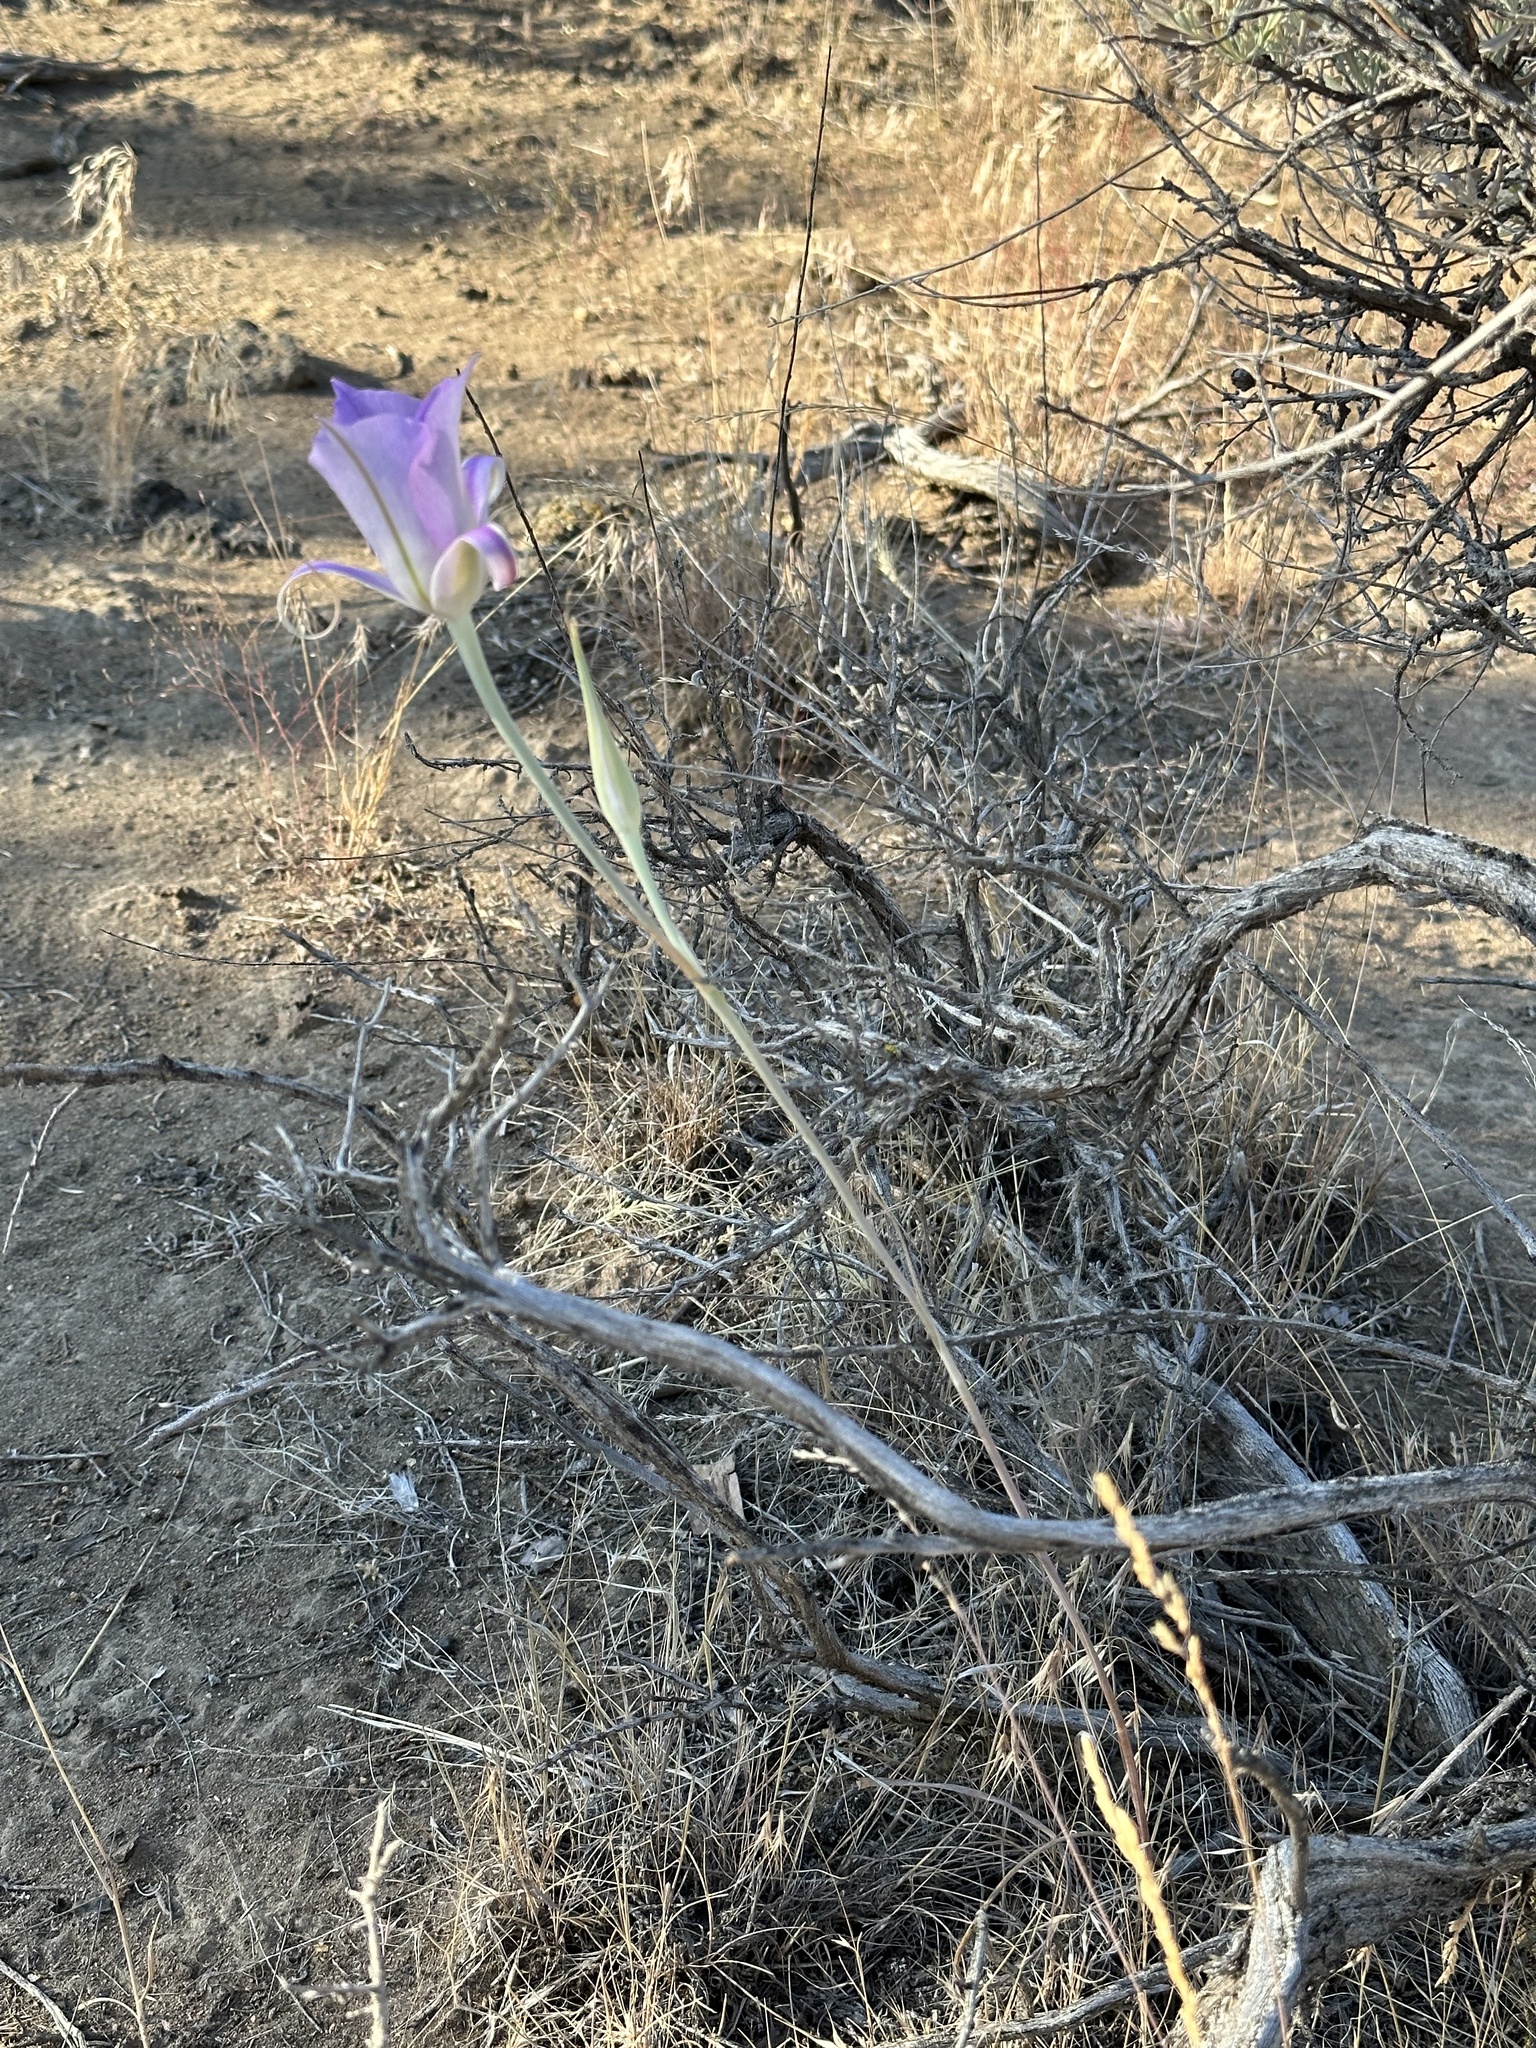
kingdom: Plantae
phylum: Tracheophyta
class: Liliopsida
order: Liliales
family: Liliaceae
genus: Calochortus
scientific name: Calochortus macrocarpus
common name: Green-band mariposa lily
